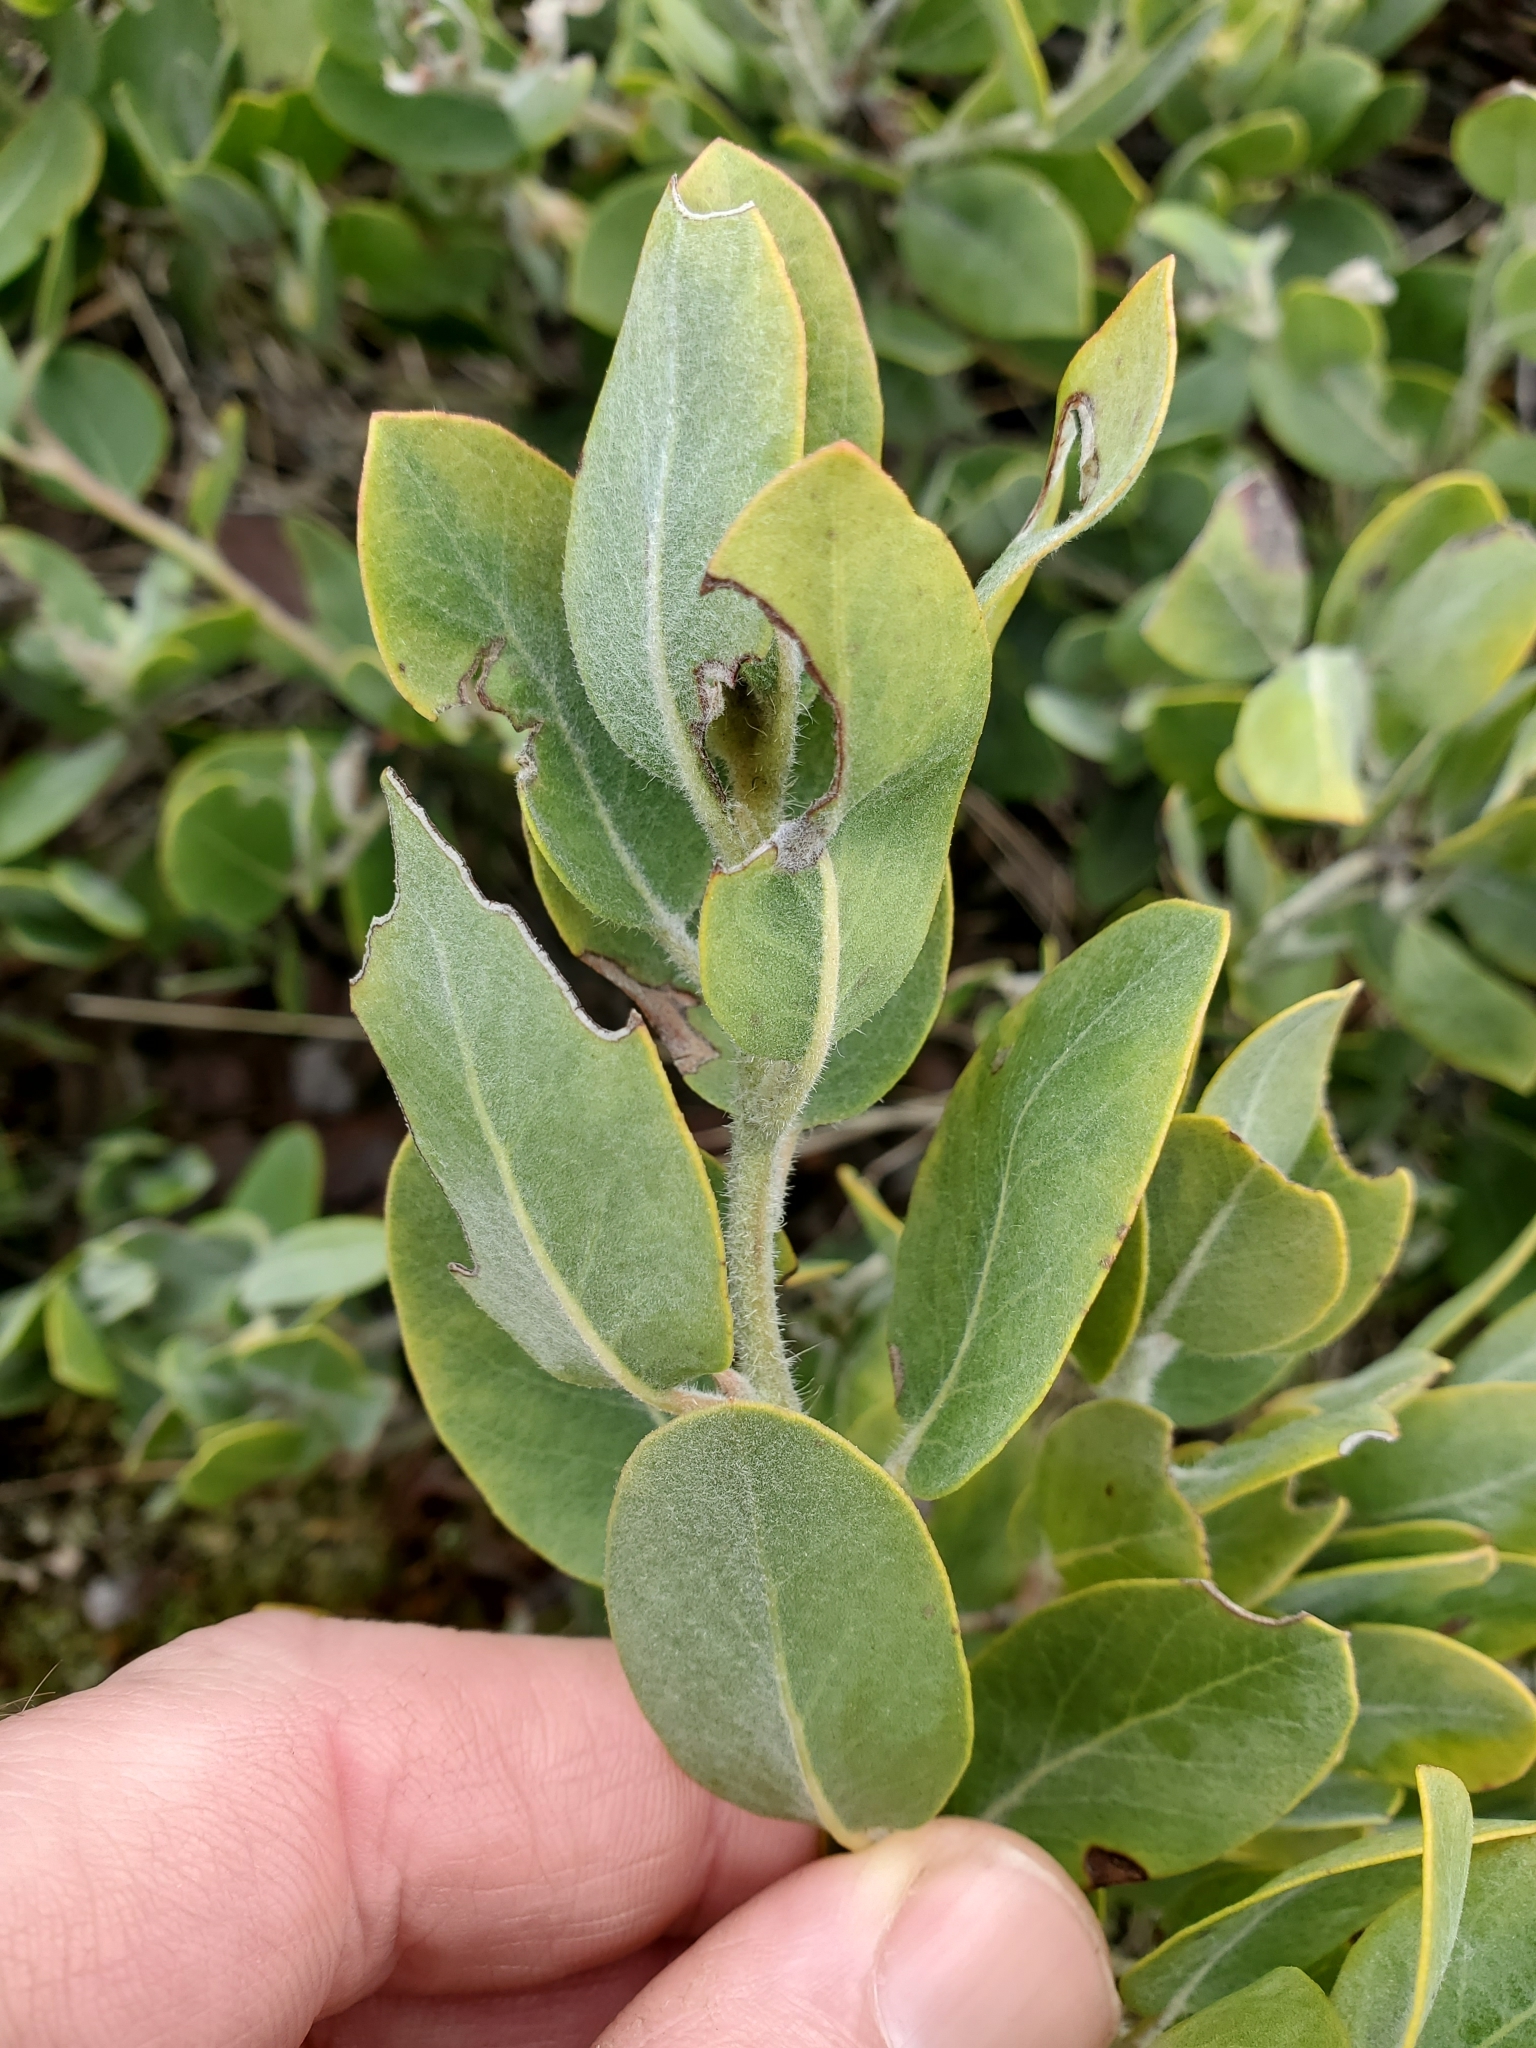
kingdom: Plantae
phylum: Tracheophyta
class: Magnoliopsida
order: Ericales
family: Ericaceae
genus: Arctostaphylos
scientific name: Arctostaphylos columbiana
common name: Bristly bearberry
